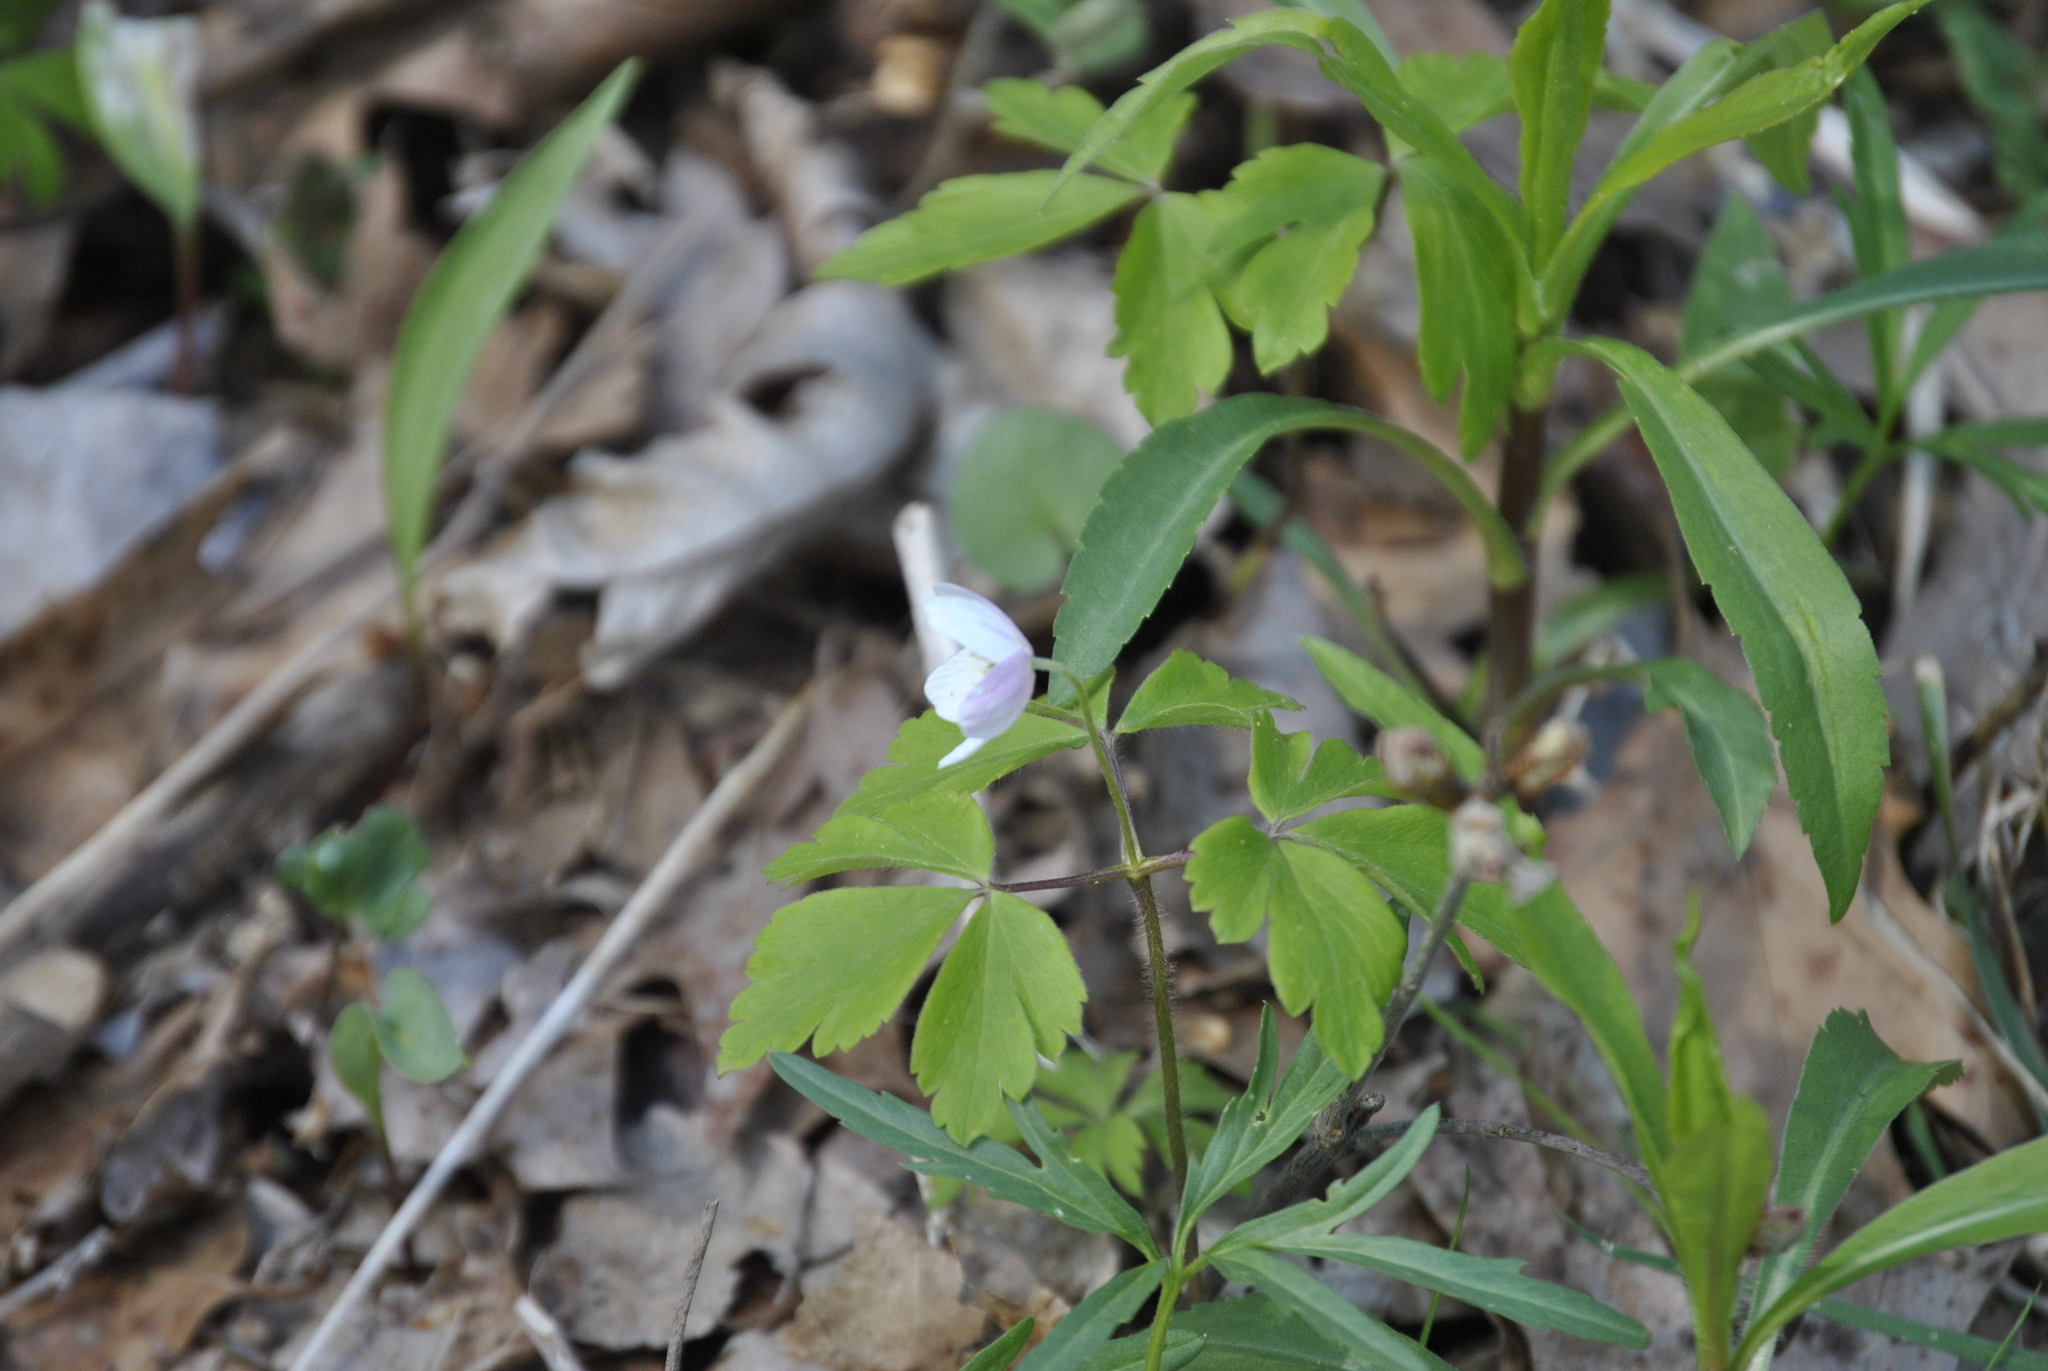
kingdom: Plantae
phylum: Tracheophyta
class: Magnoliopsida
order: Ranunculales
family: Ranunculaceae
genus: Anemone
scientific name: Anemone quinquefolia
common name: Wood anemone
